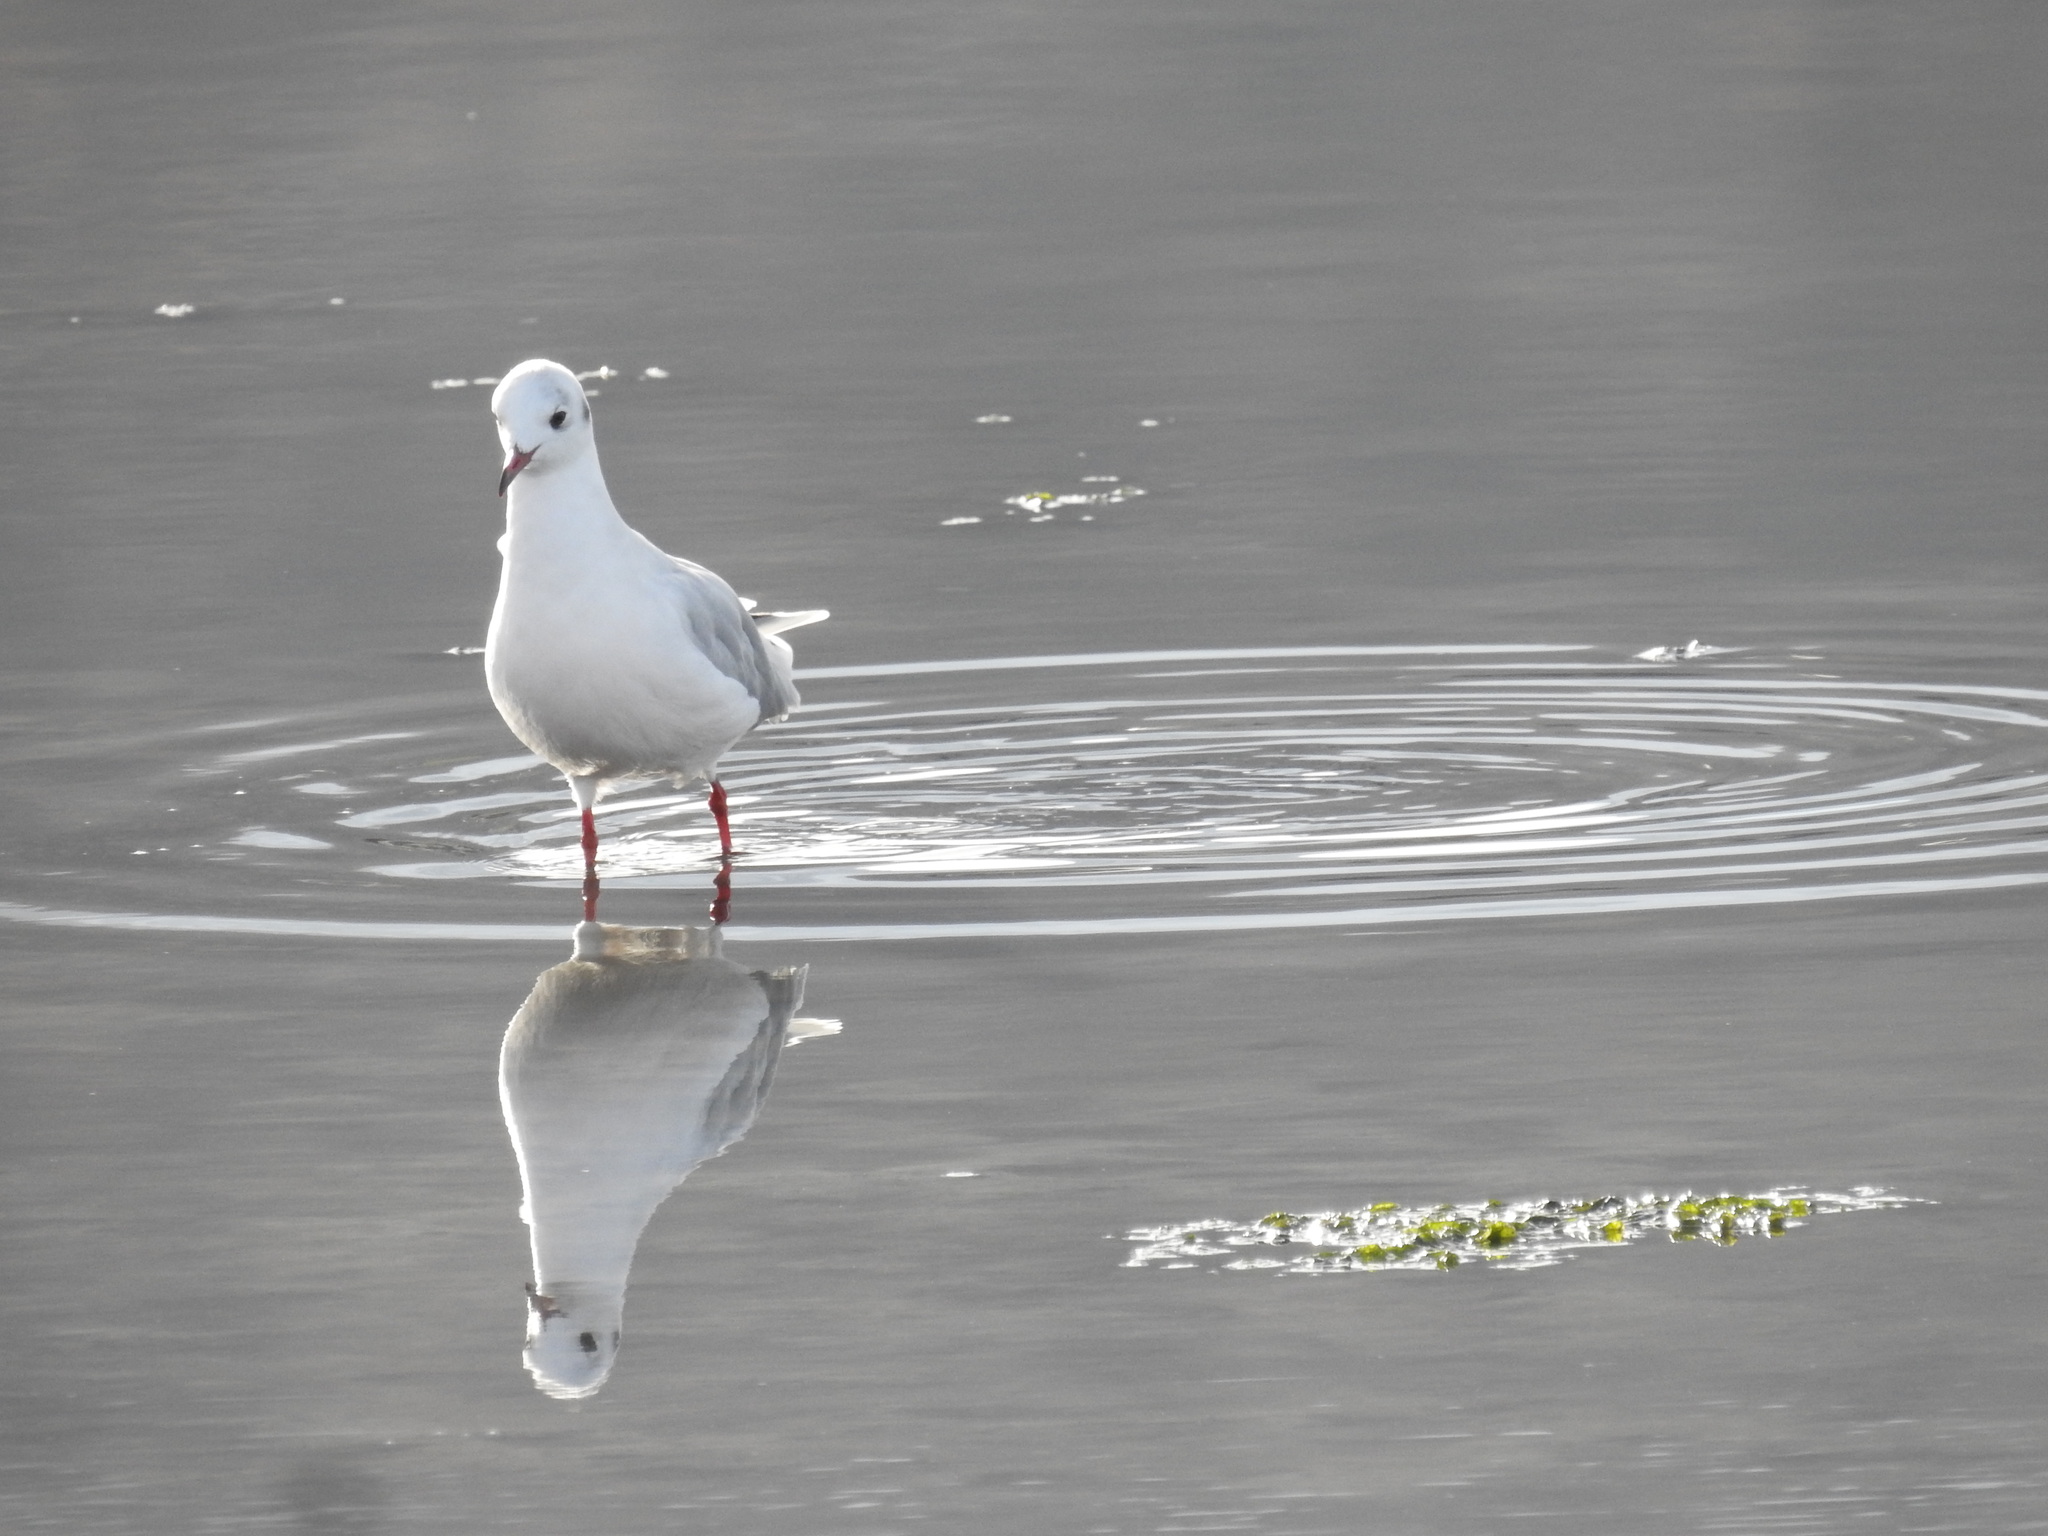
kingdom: Animalia
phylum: Chordata
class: Aves
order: Charadriiformes
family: Laridae
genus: Chroicocephalus
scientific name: Chroicocephalus maculipennis
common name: Brown-hooded gull
